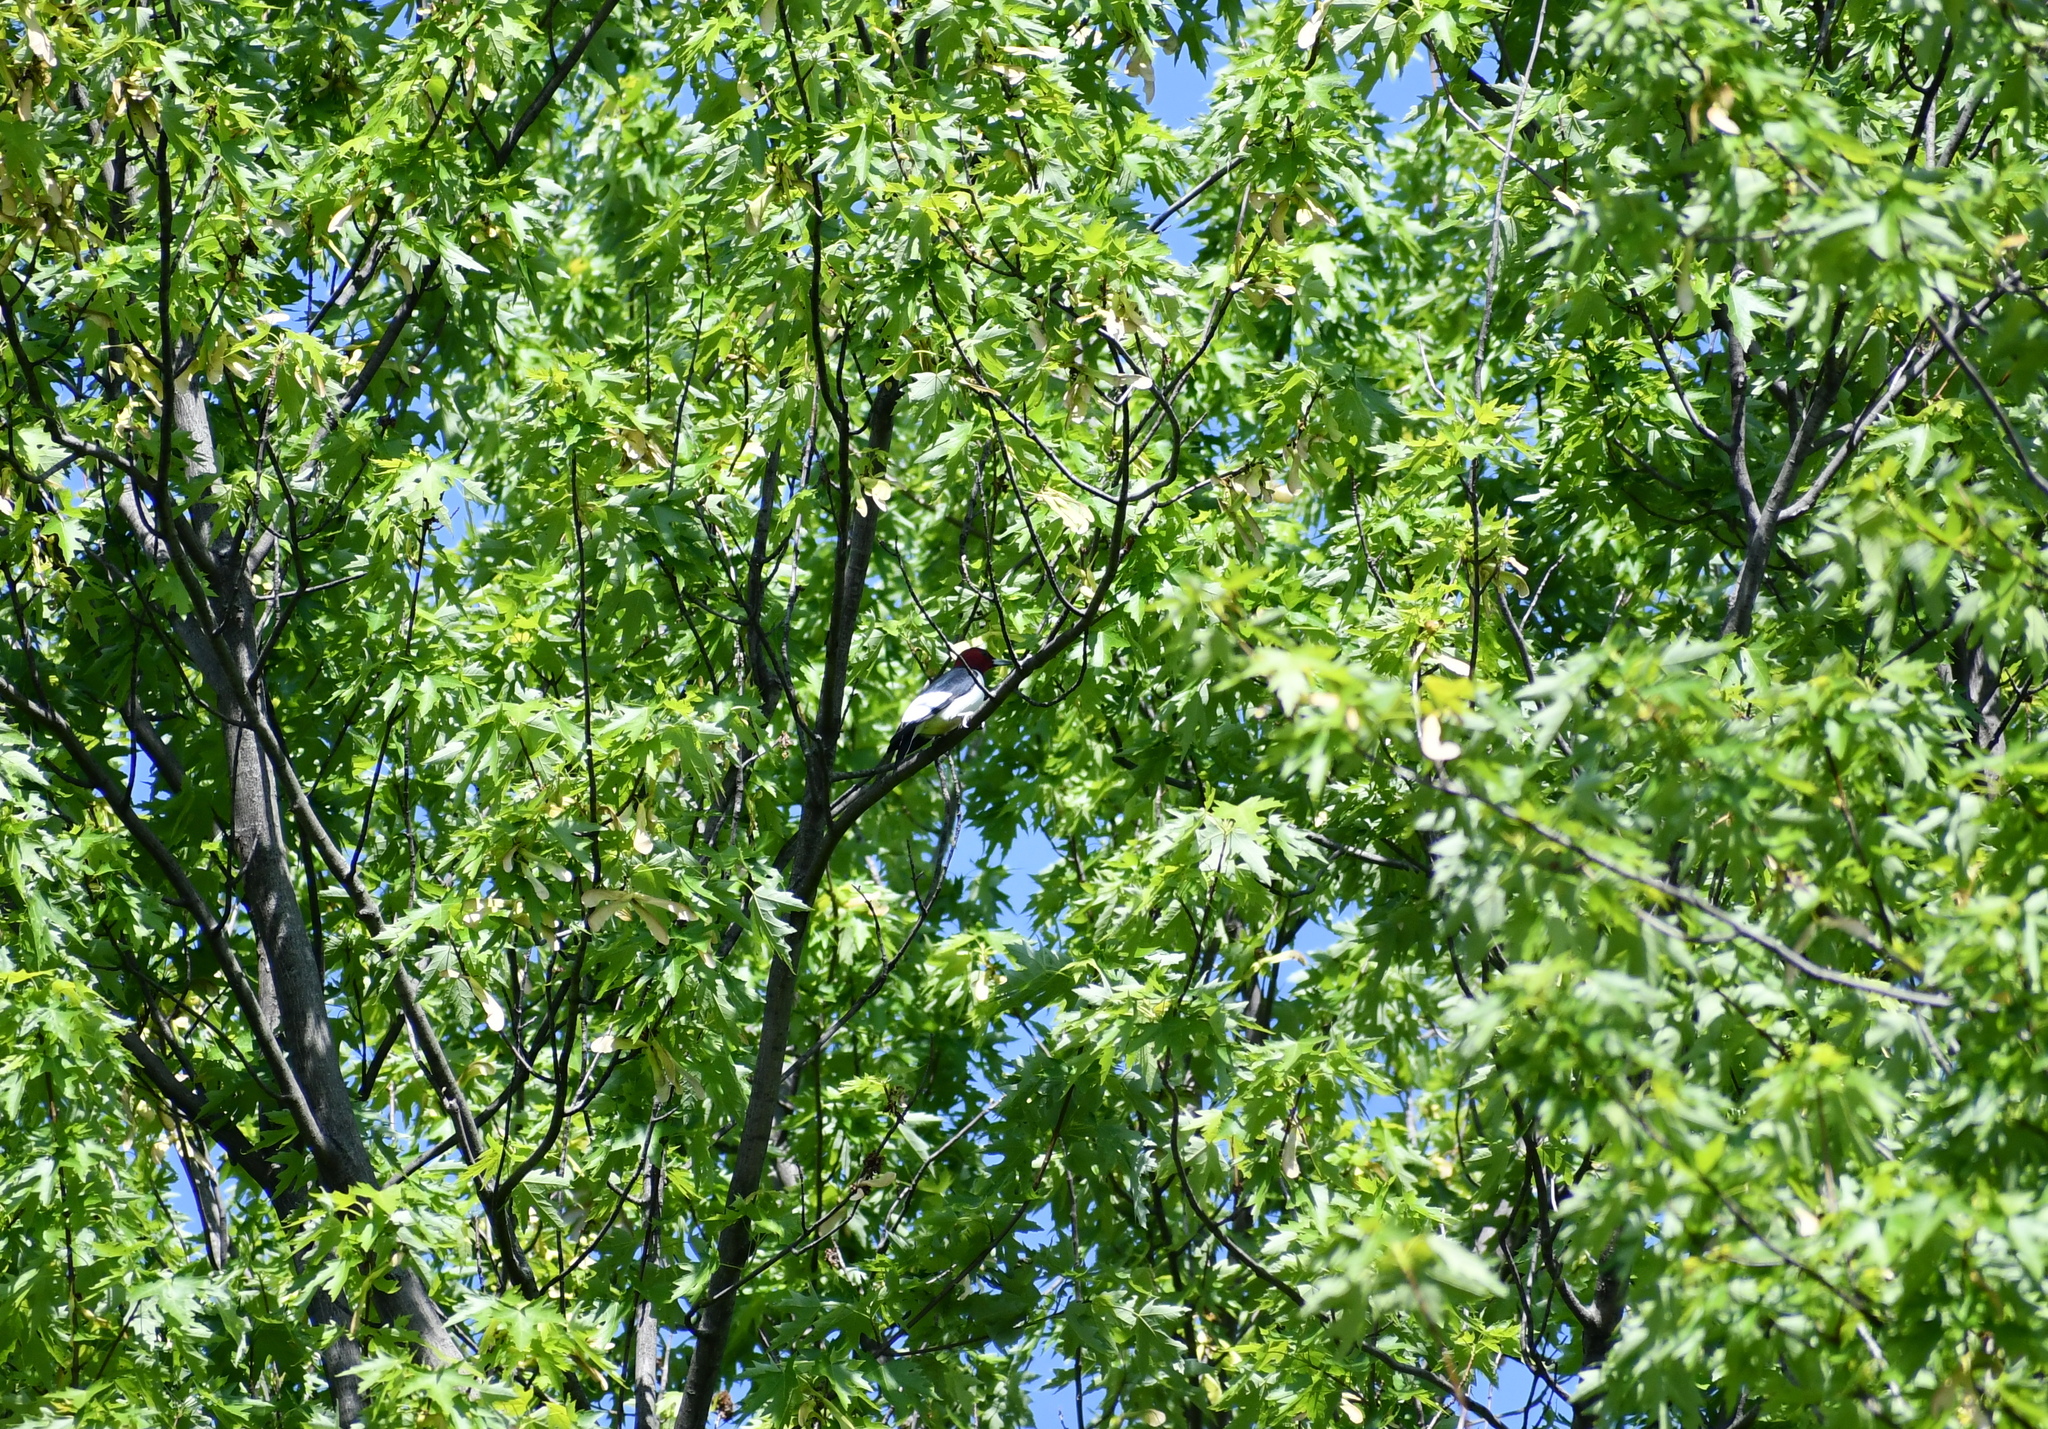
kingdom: Animalia
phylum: Chordata
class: Aves
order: Piciformes
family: Picidae
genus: Melanerpes
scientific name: Melanerpes erythrocephalus
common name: Red-headed woodpecker
